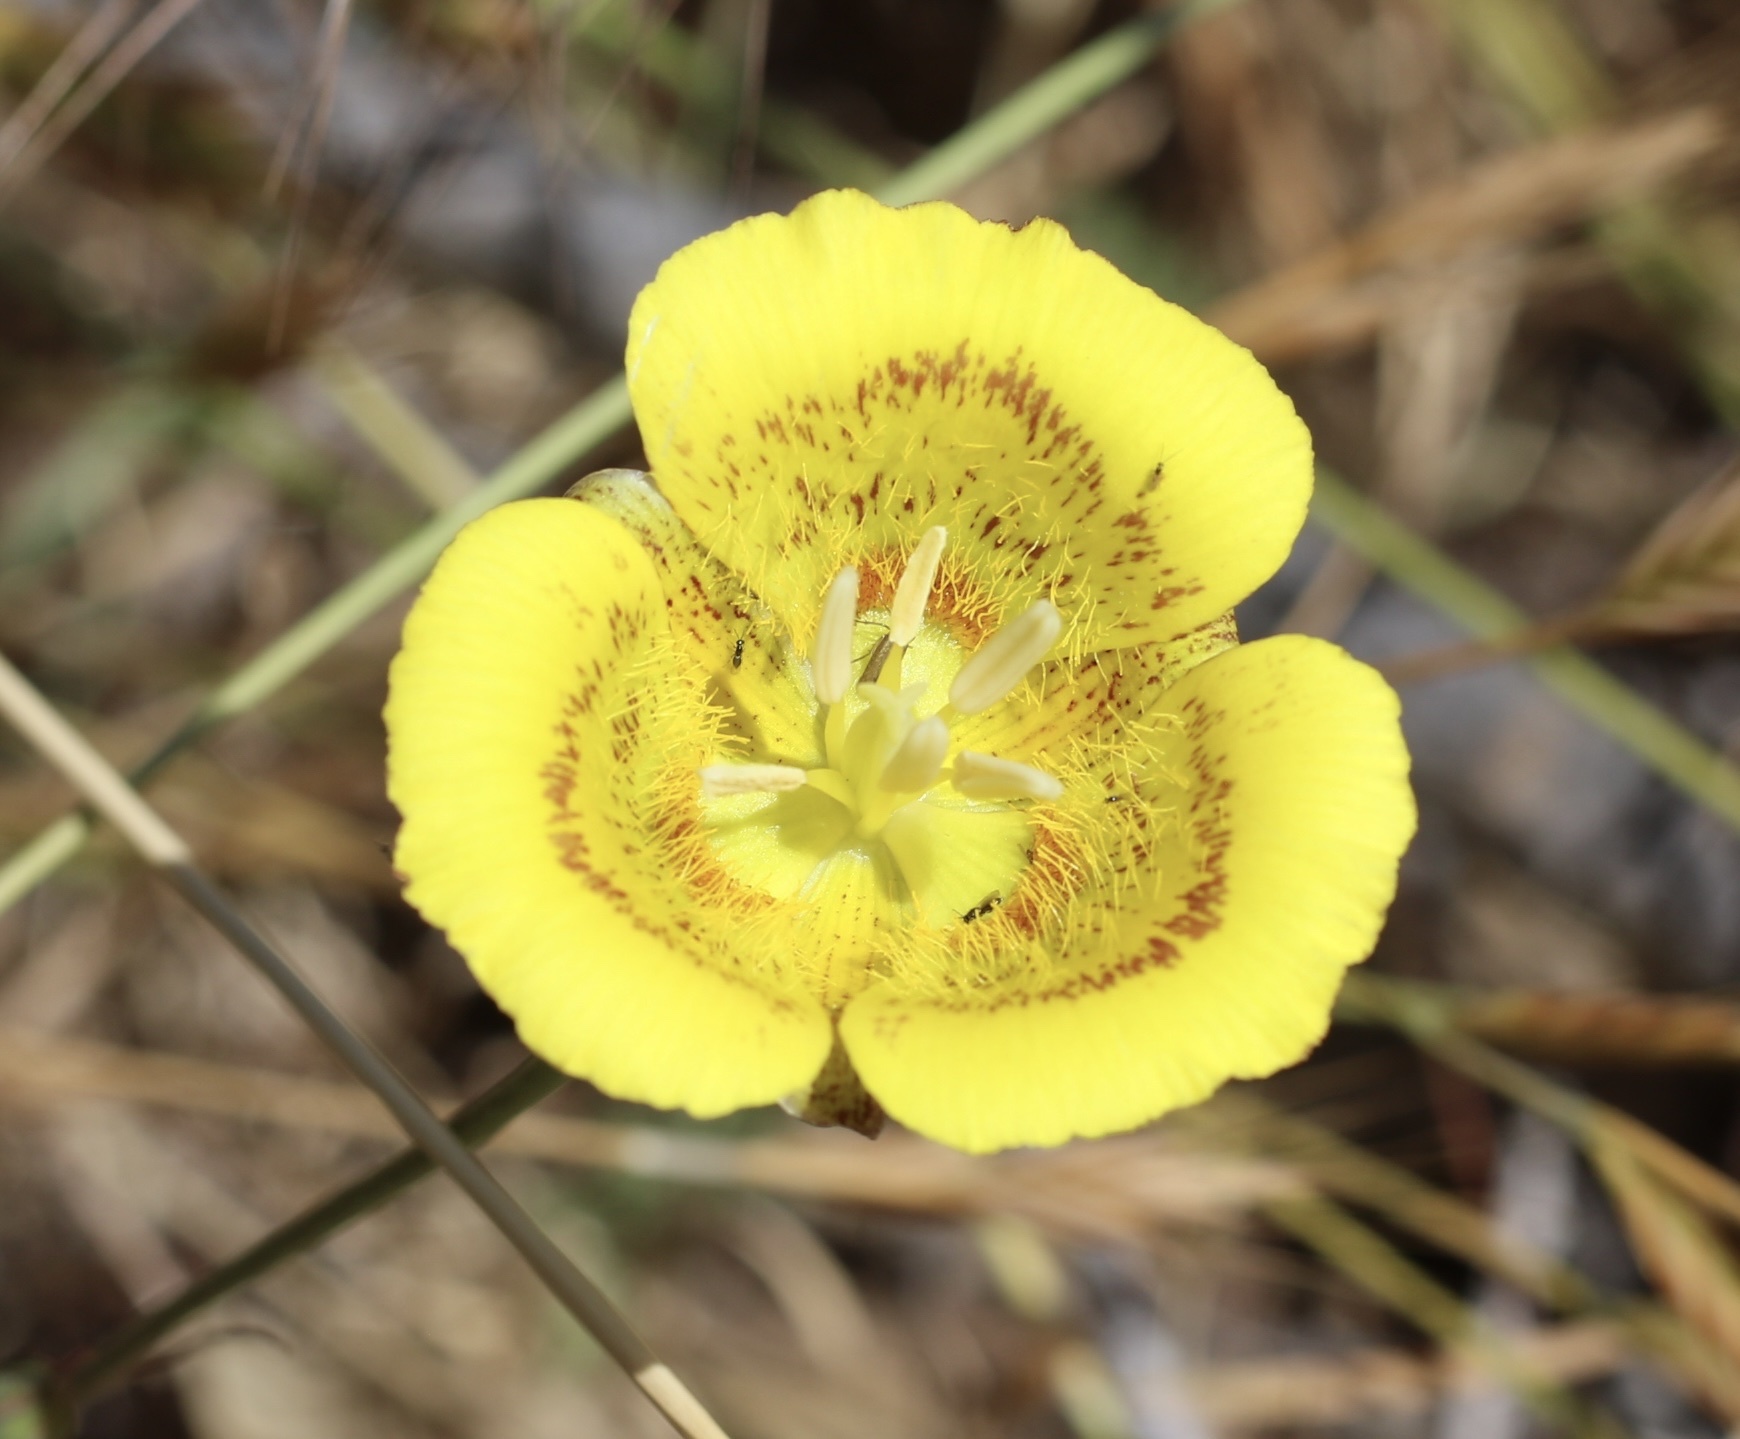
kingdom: Plantae
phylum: Tracheophyta
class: Liliopsida
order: Liliales
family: Liliaceae
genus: Calochortus
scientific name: Calochortus luteus
